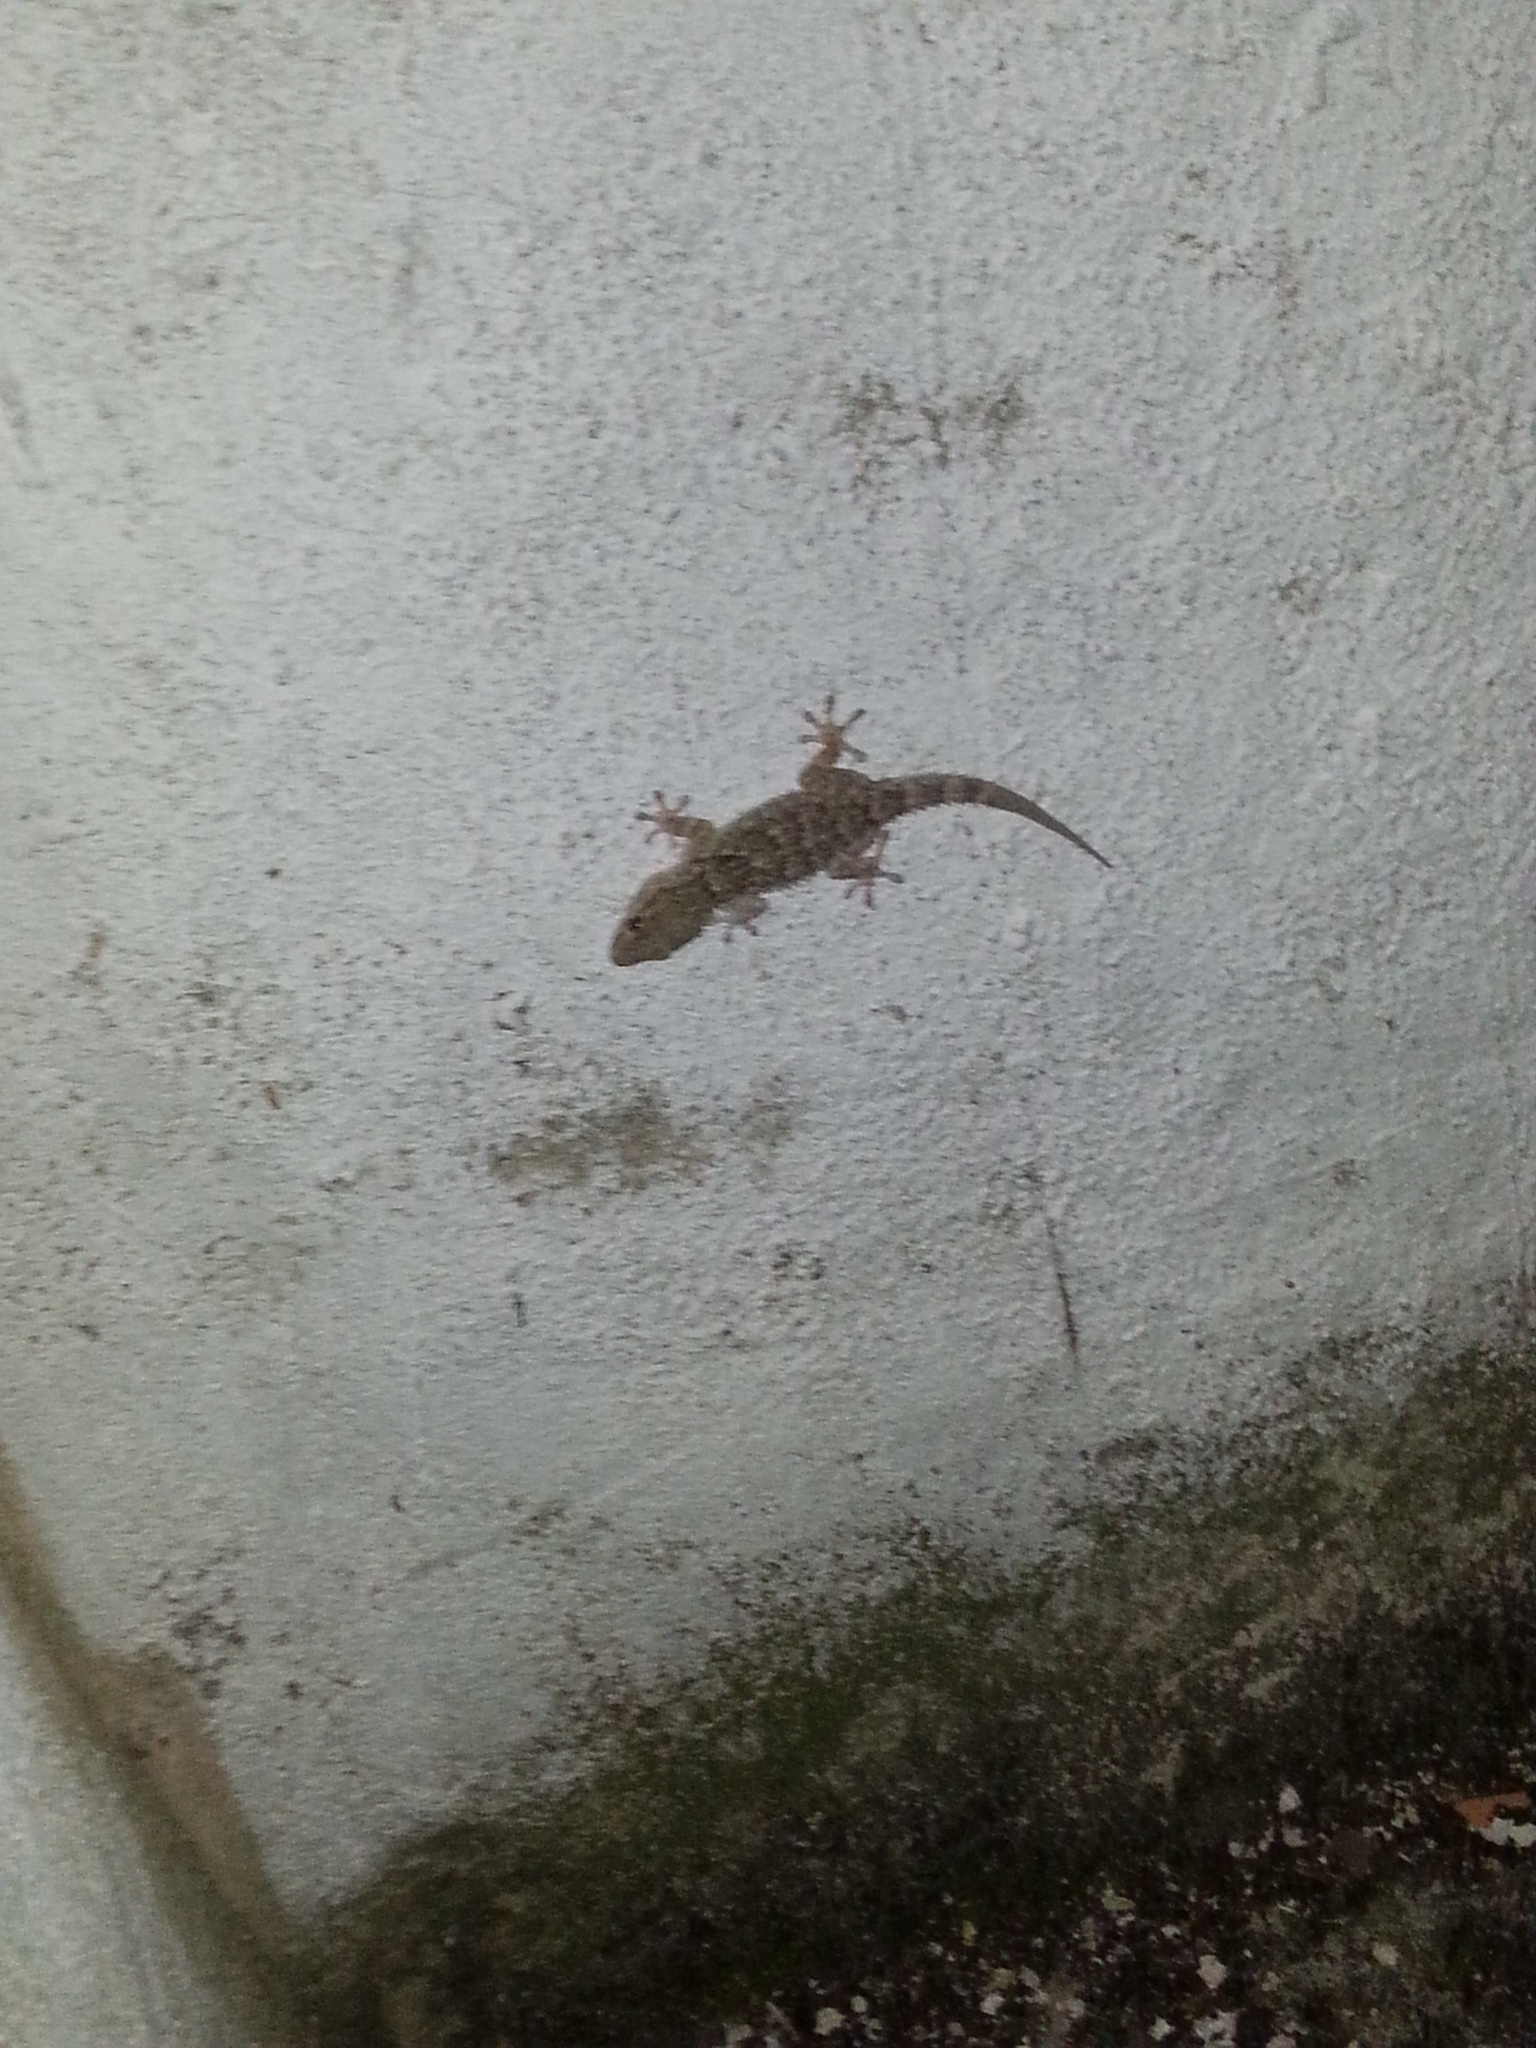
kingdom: Animalia
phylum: Chordata
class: Squamata
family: Phyllodactylidae
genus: Tarentola
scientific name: Tarentola mauritanica
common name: Moorish gecko
